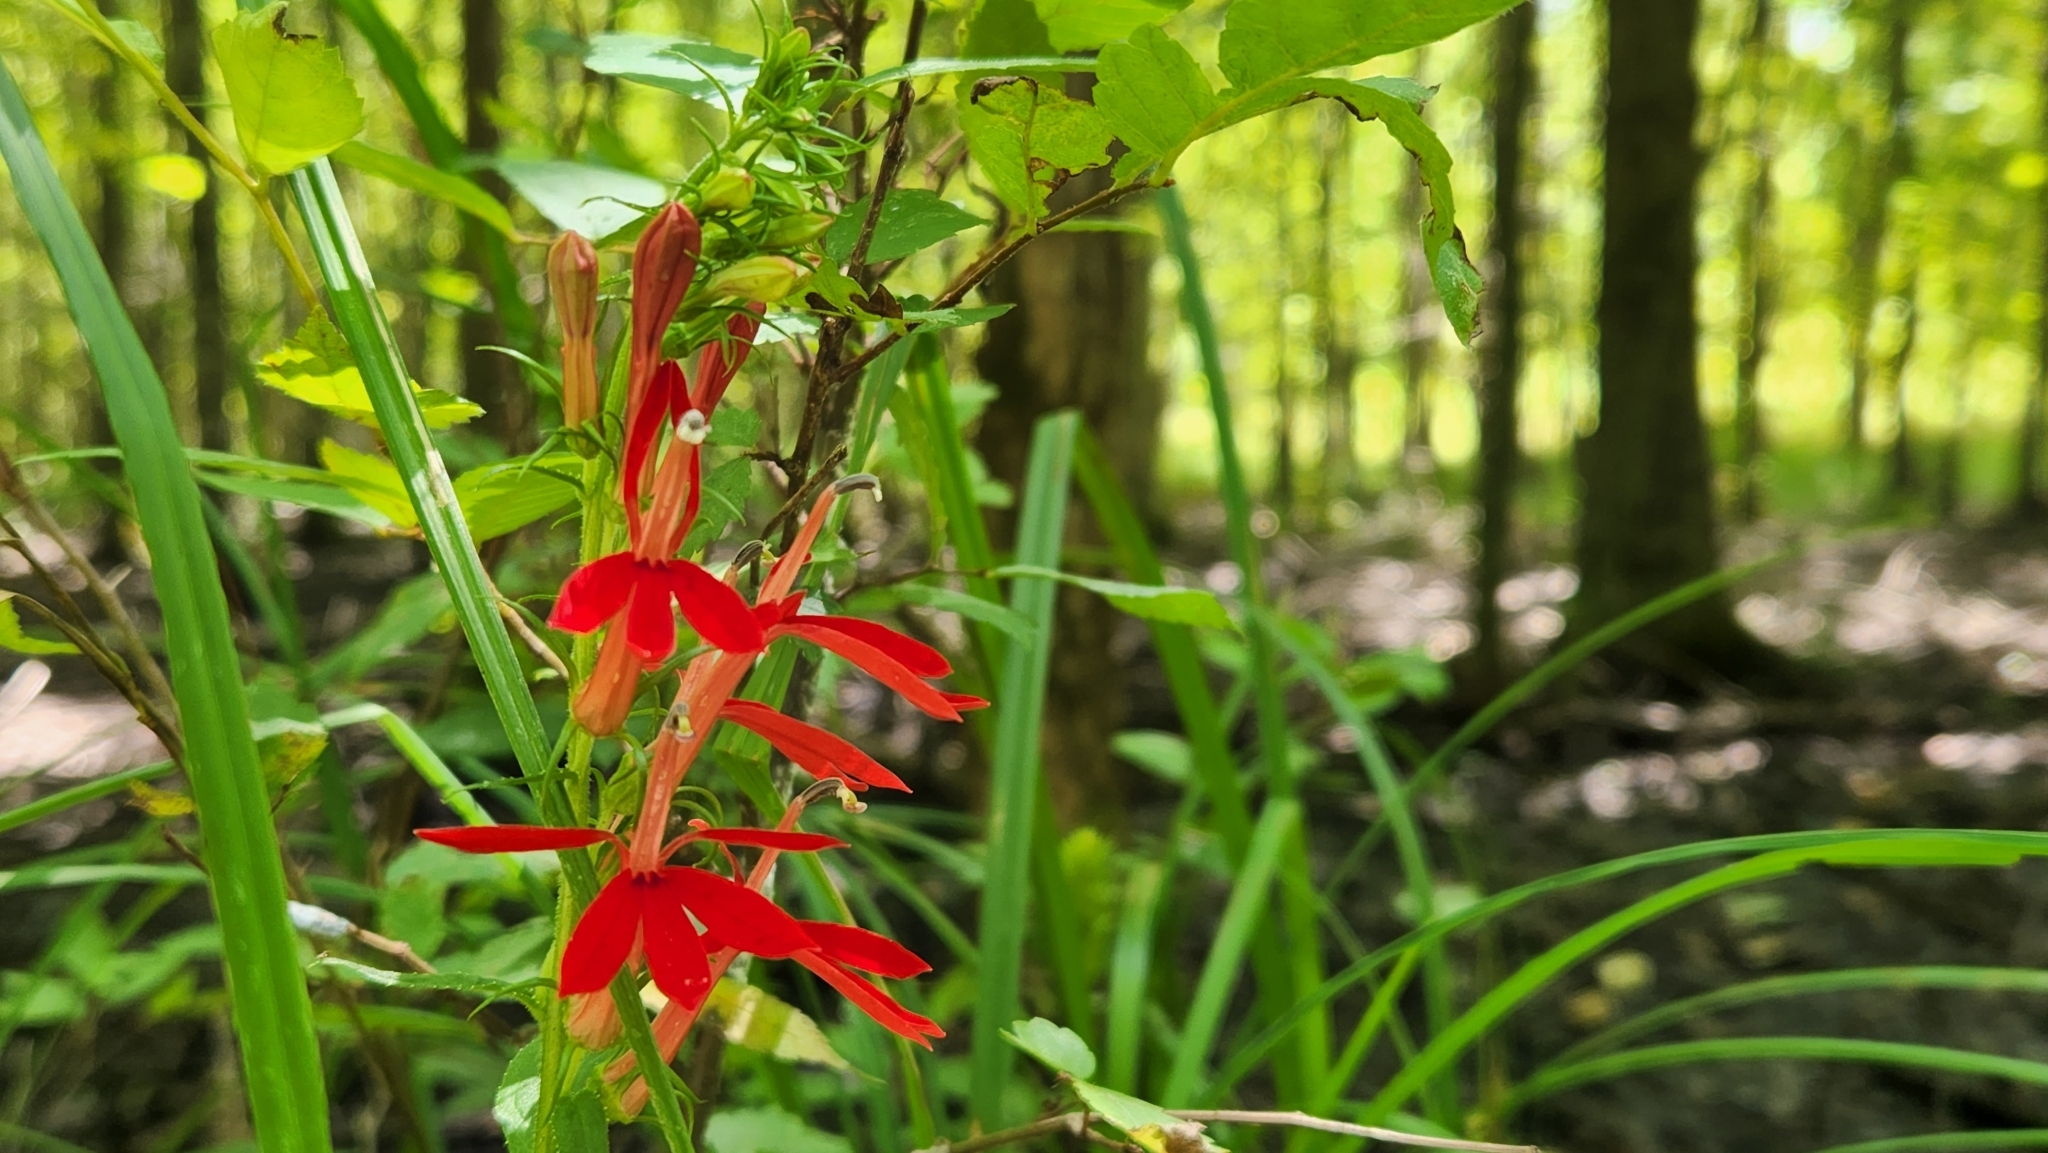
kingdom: Plantae
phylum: Tracheophyta
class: Magnoliopsida
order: Asterales
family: Campanulaceae
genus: Lobelia
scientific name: Lobelia cardinalis
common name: Cardinal flower
